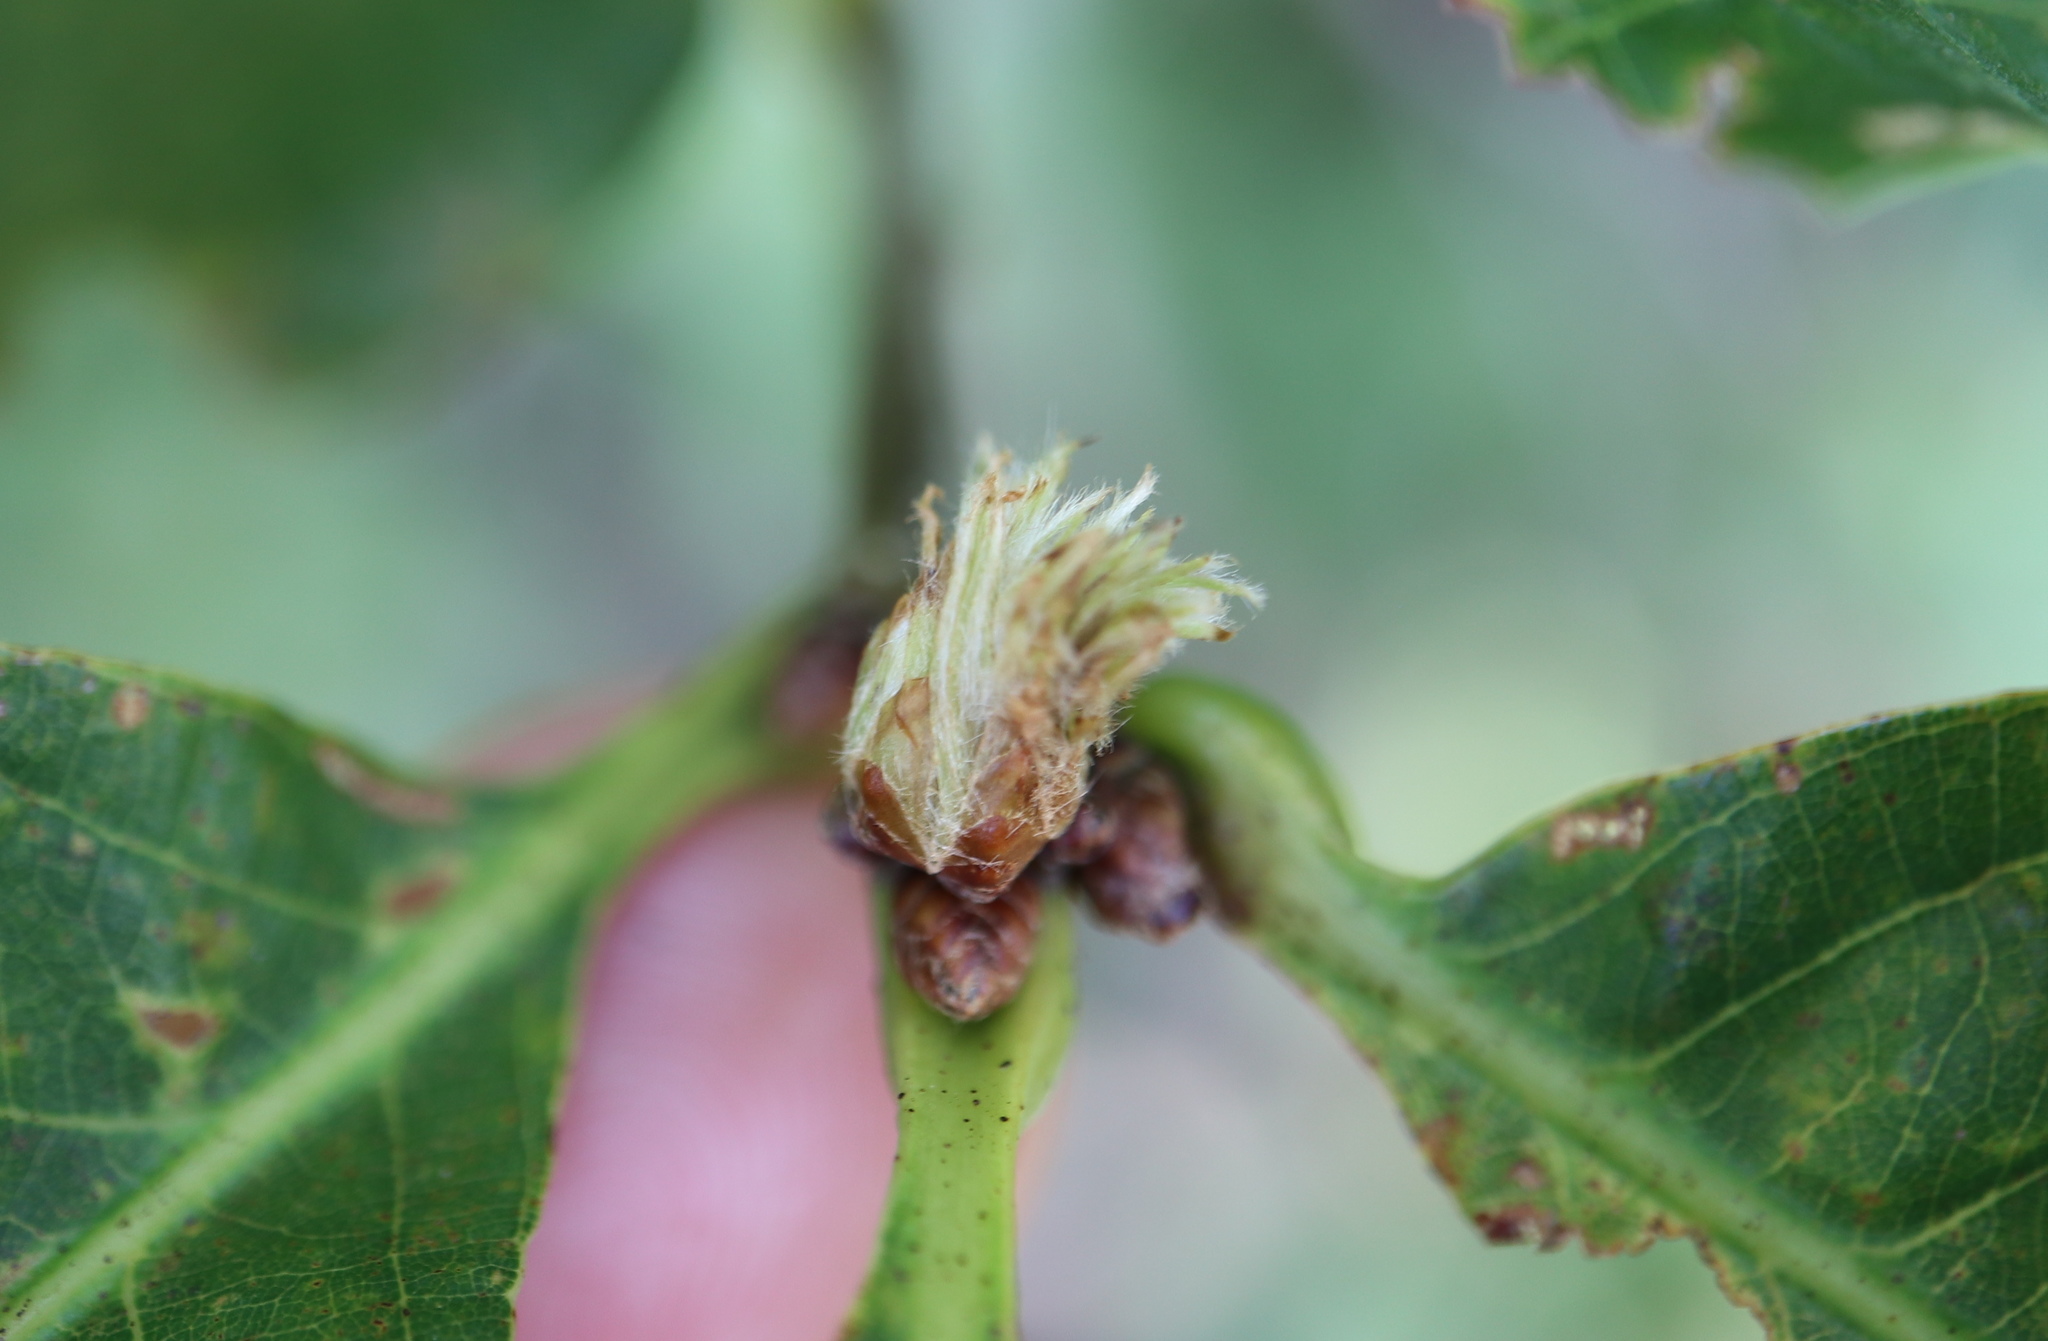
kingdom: Animalia
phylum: Arthropoda
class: Insecta
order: Hymenoptera
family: Cynipidae
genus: Andricus
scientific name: Andricus
